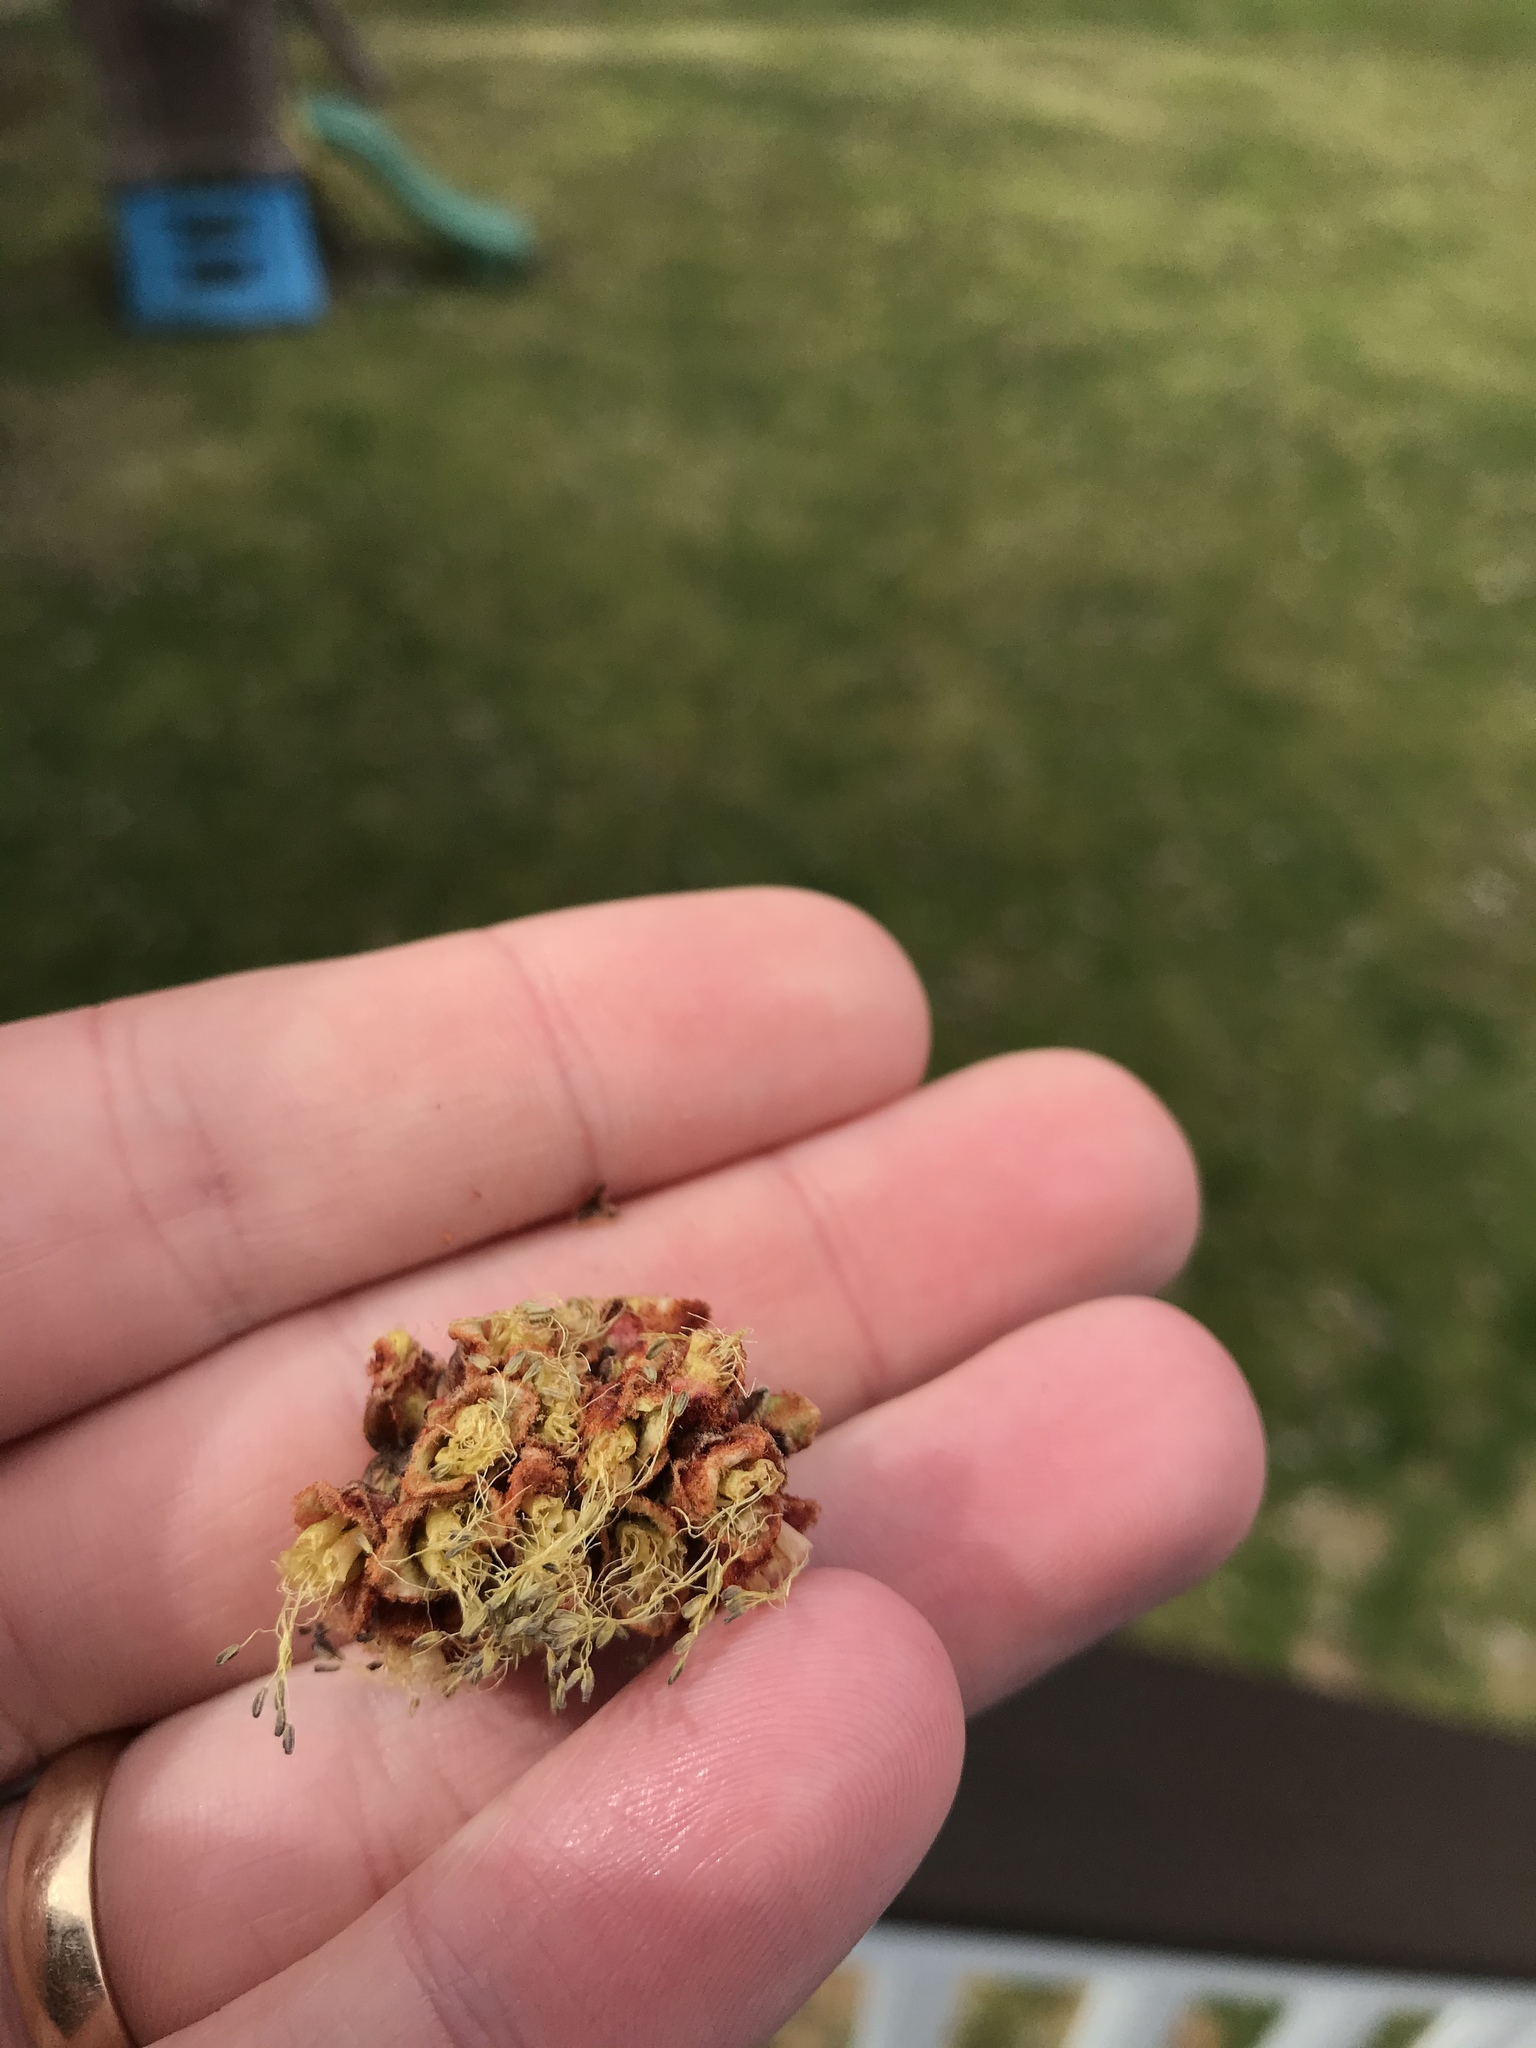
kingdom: Plantae
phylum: Tracheophyta
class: Magnoliopsida
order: Sapindales
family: Sapindaceae
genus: Acer
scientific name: Acer saccharinum
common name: Silver maple
